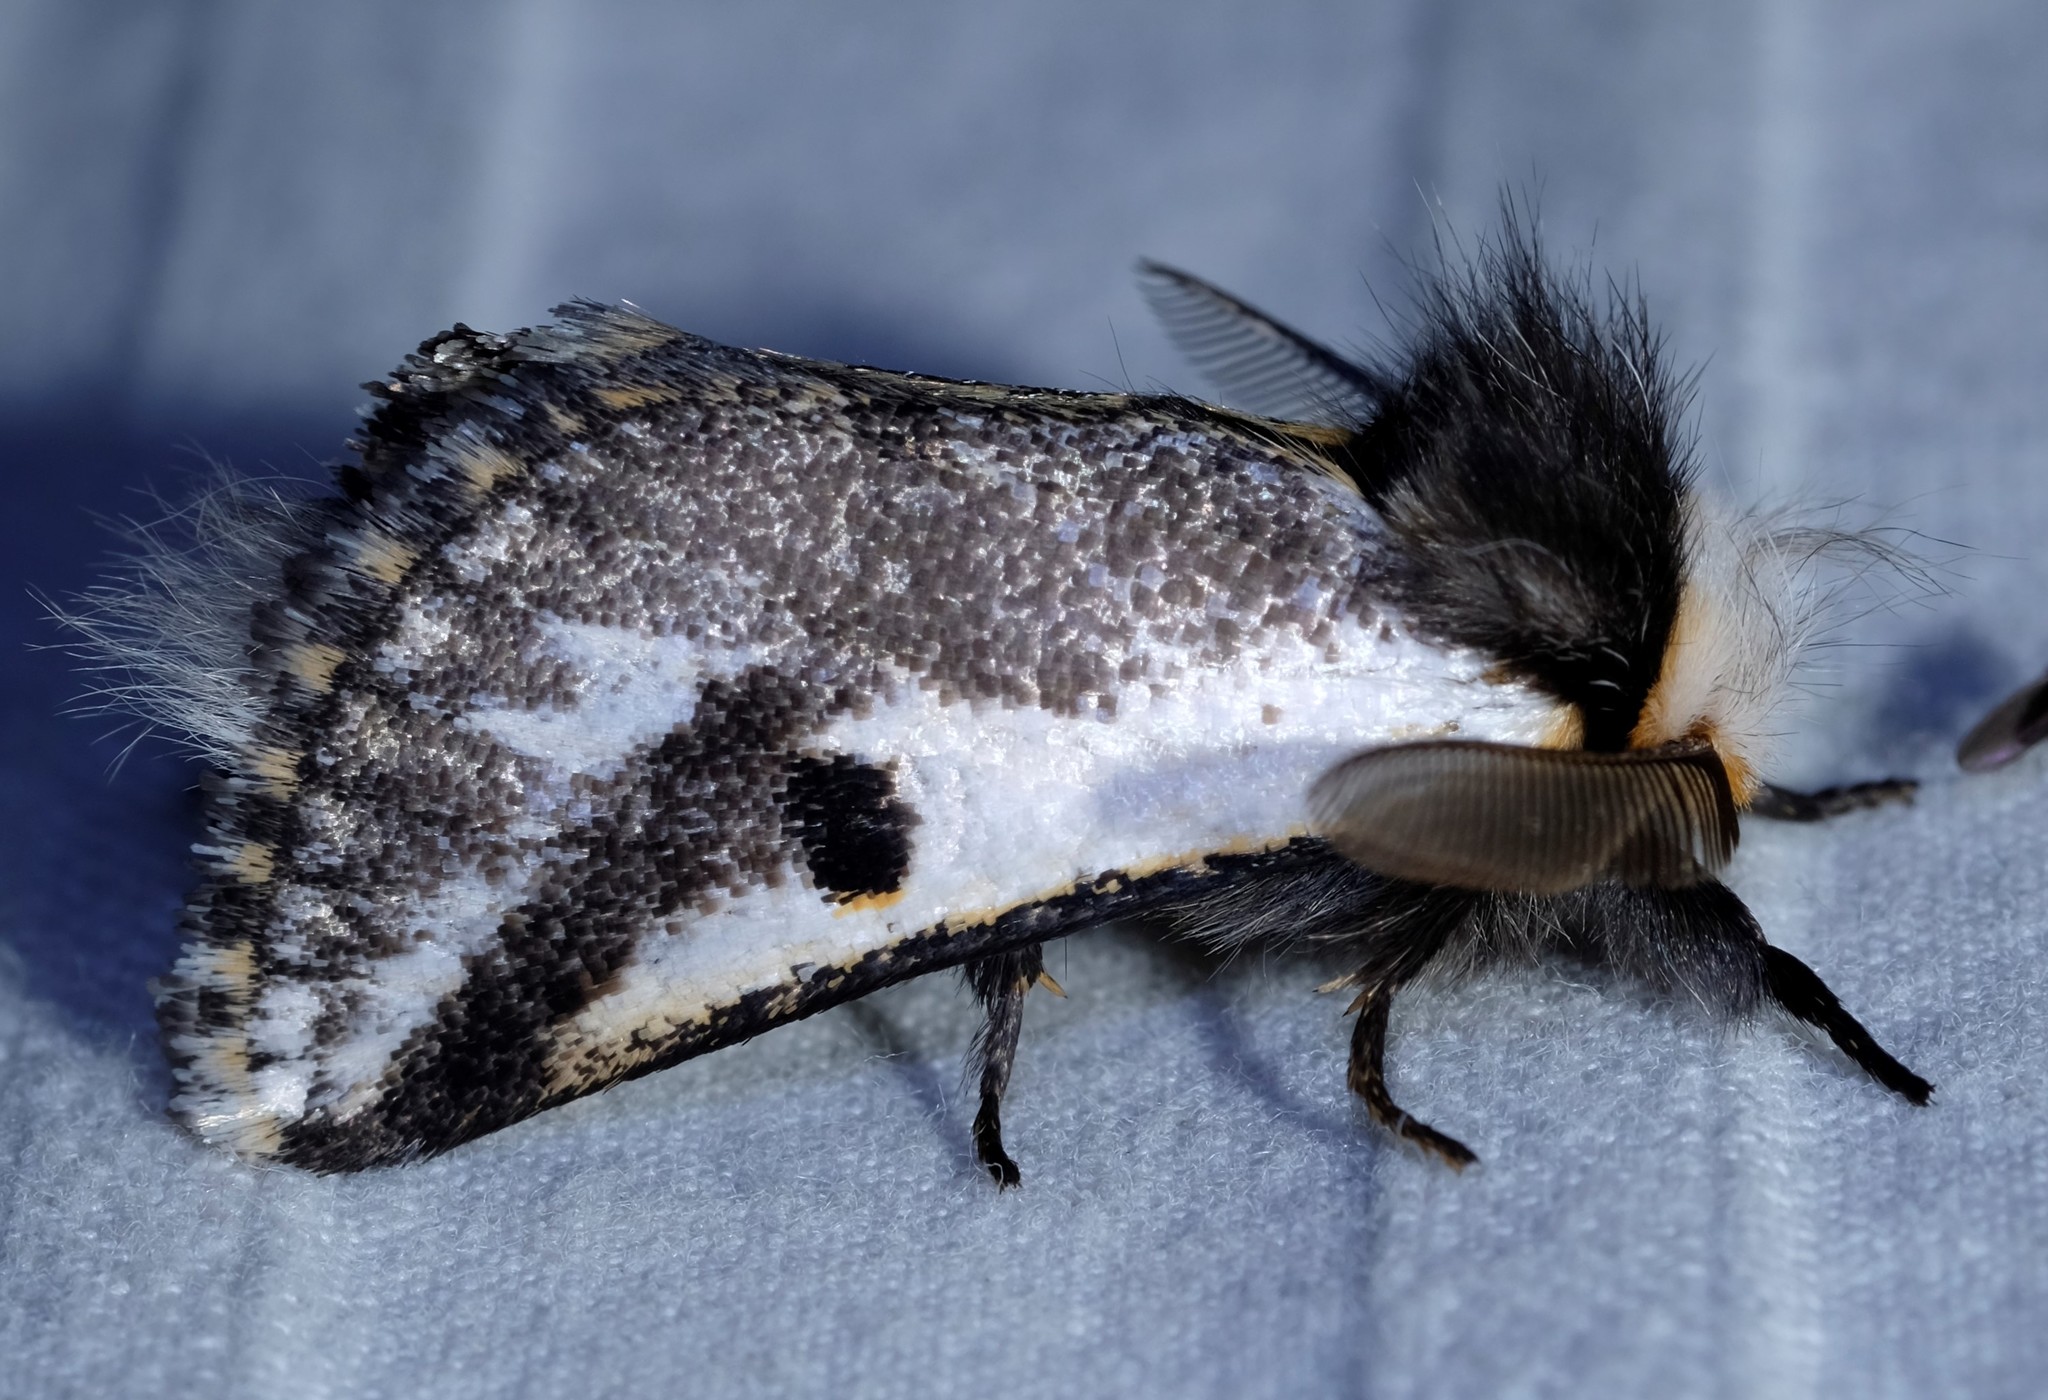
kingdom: Animalia
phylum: Arthropoda
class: Insecta
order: Lepidoptera
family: Notodontidae
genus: Epicoma
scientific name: Epicoma melanospila
